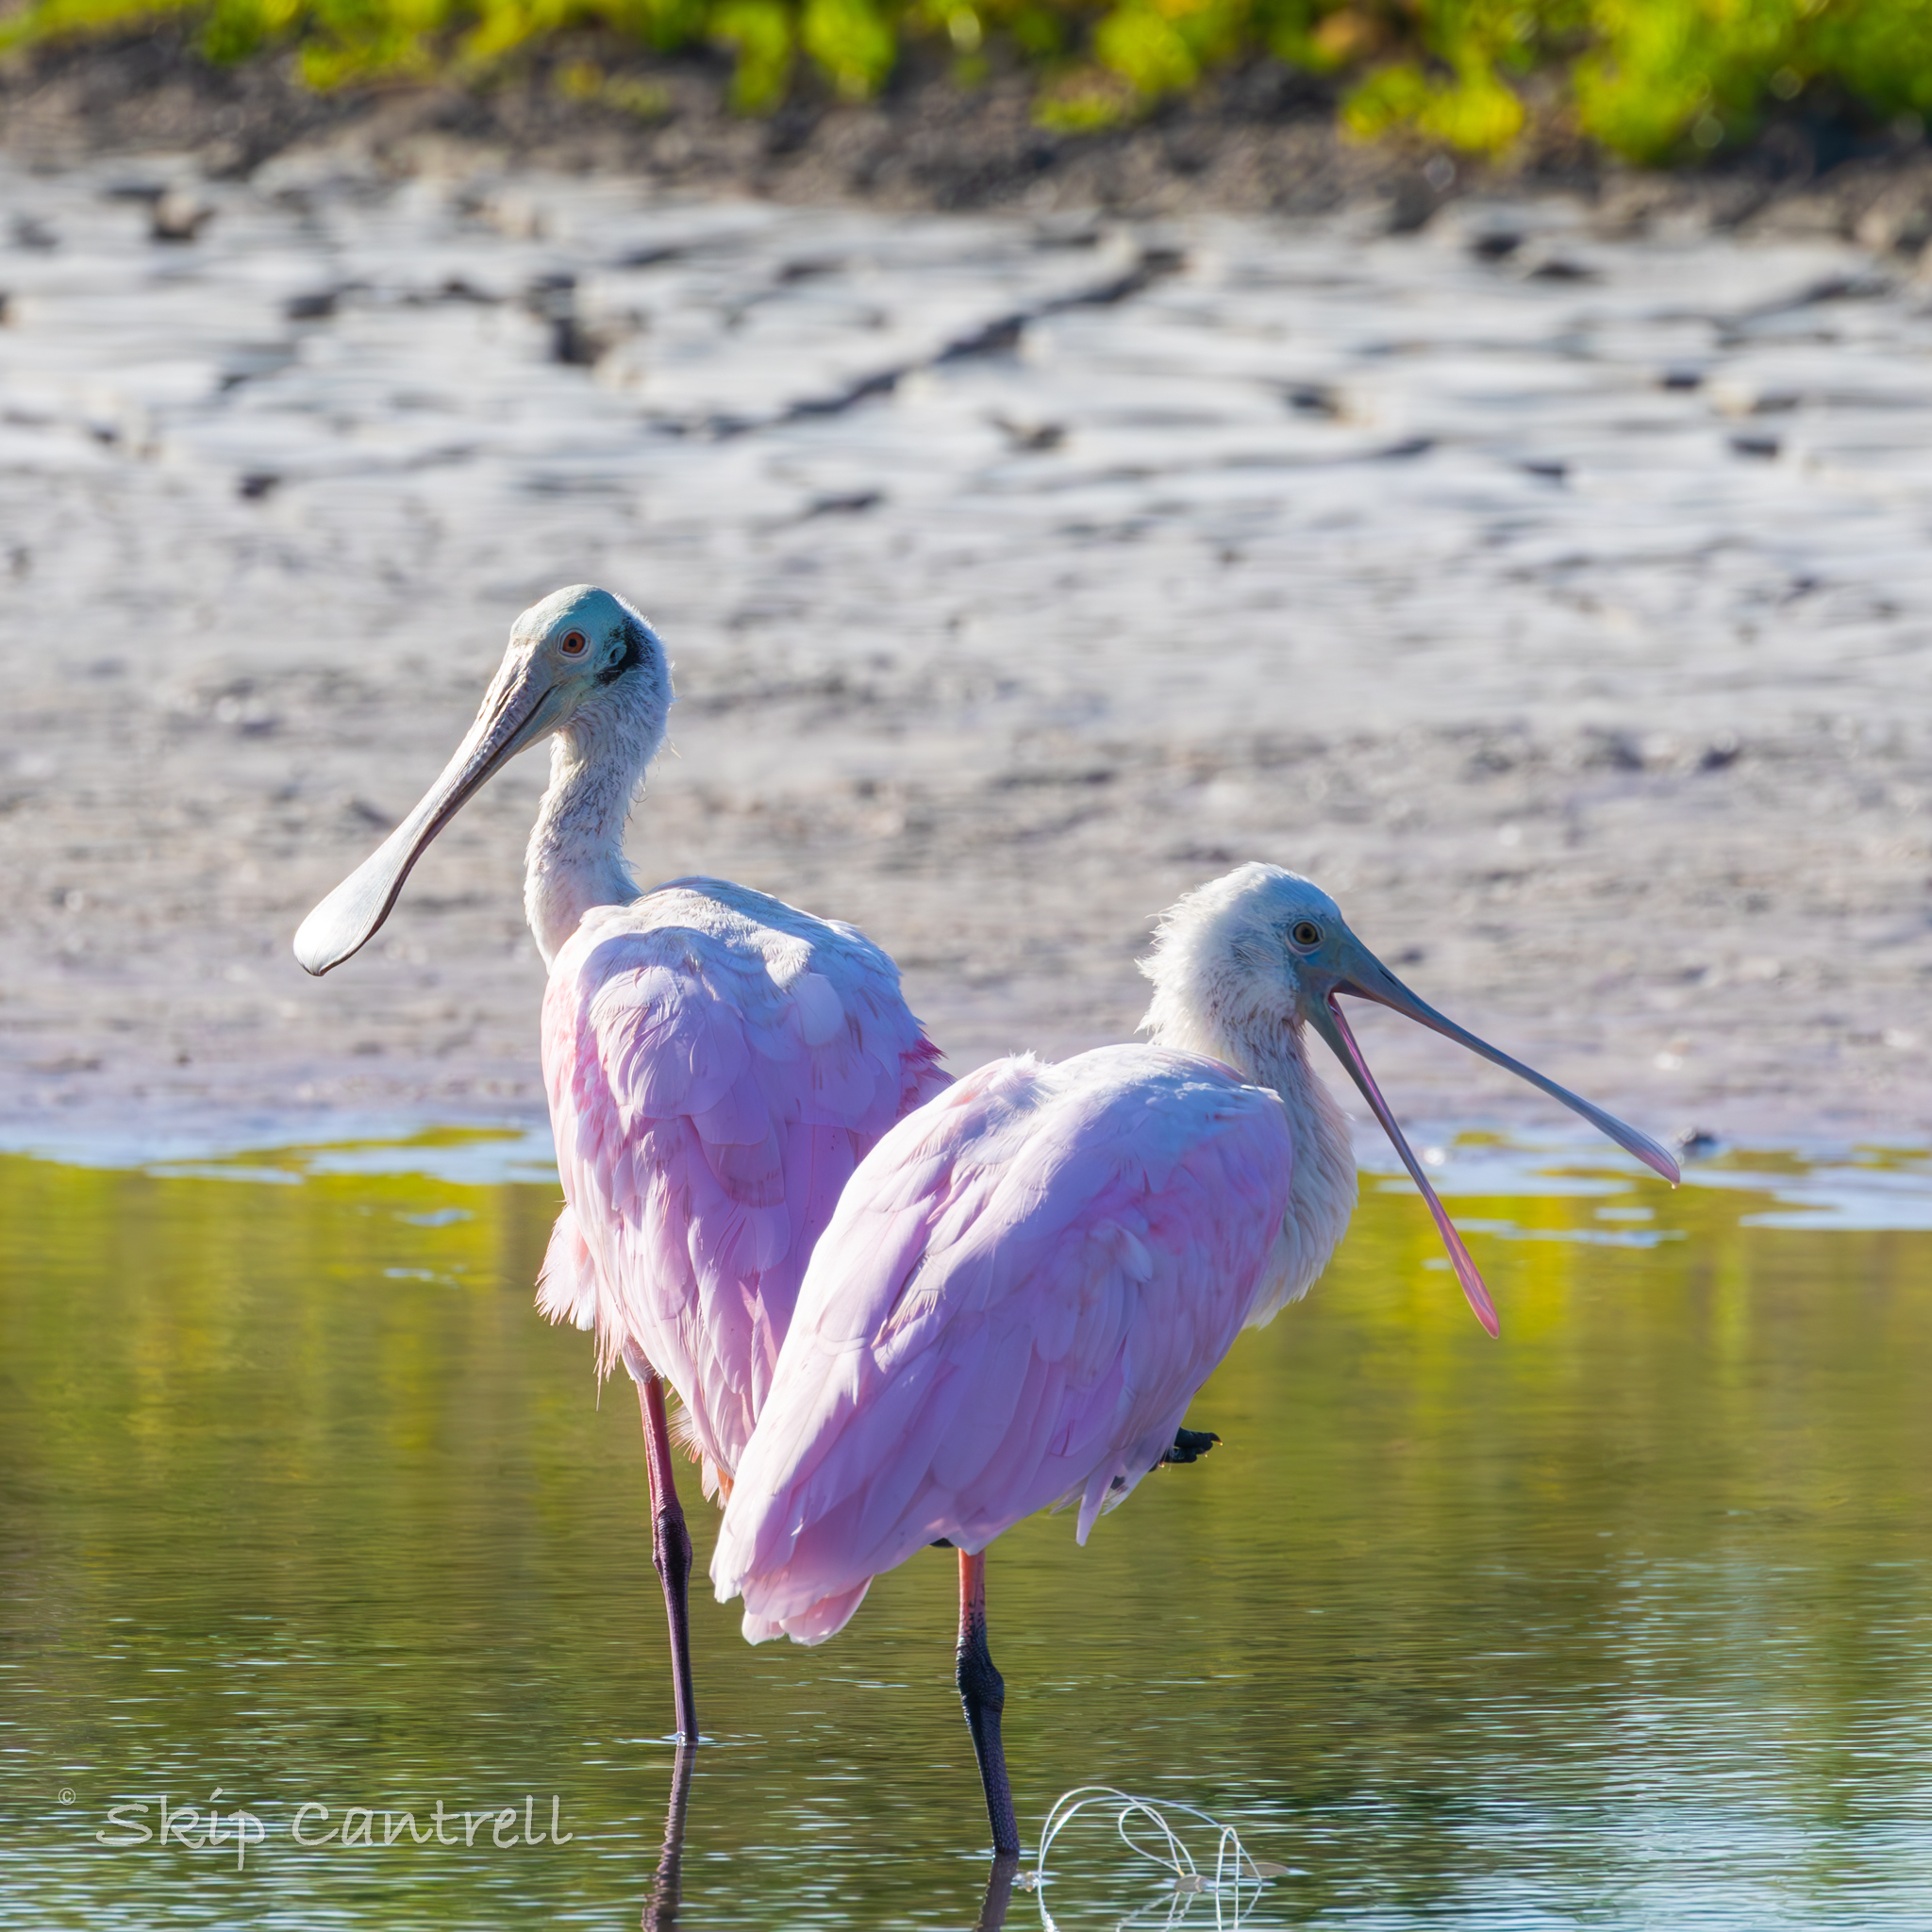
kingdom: Animalia
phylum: Chordata
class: Aves
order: Pelecaniformes
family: Threskiornithidae
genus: Platalea
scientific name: Platalea ajaja
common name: Roseate spoonbill
